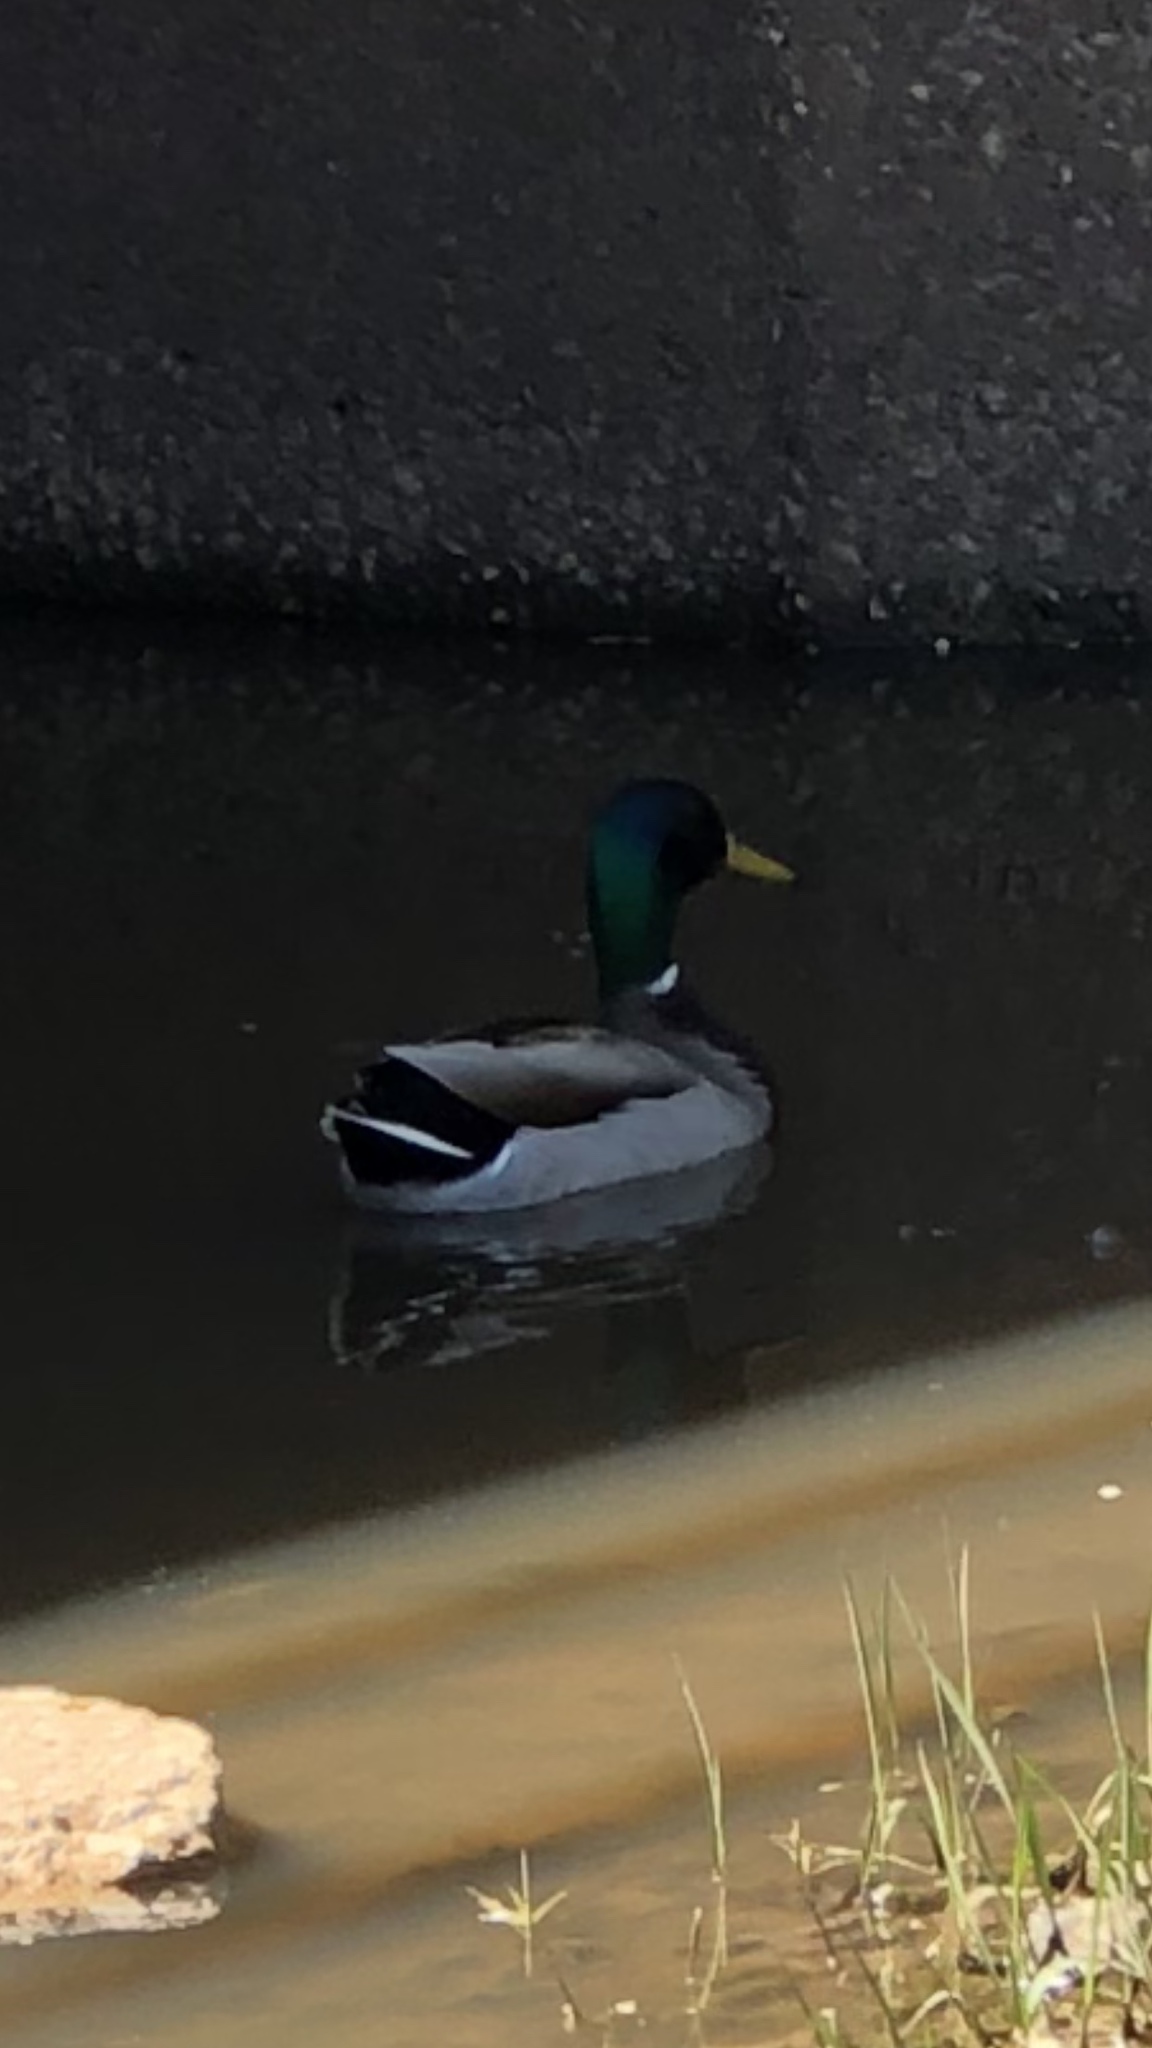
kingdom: Animalia
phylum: Chordata
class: Aves
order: Anseriformes
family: Anatidae
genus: Anas
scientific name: Anas platyrhynchos
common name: Mallard
